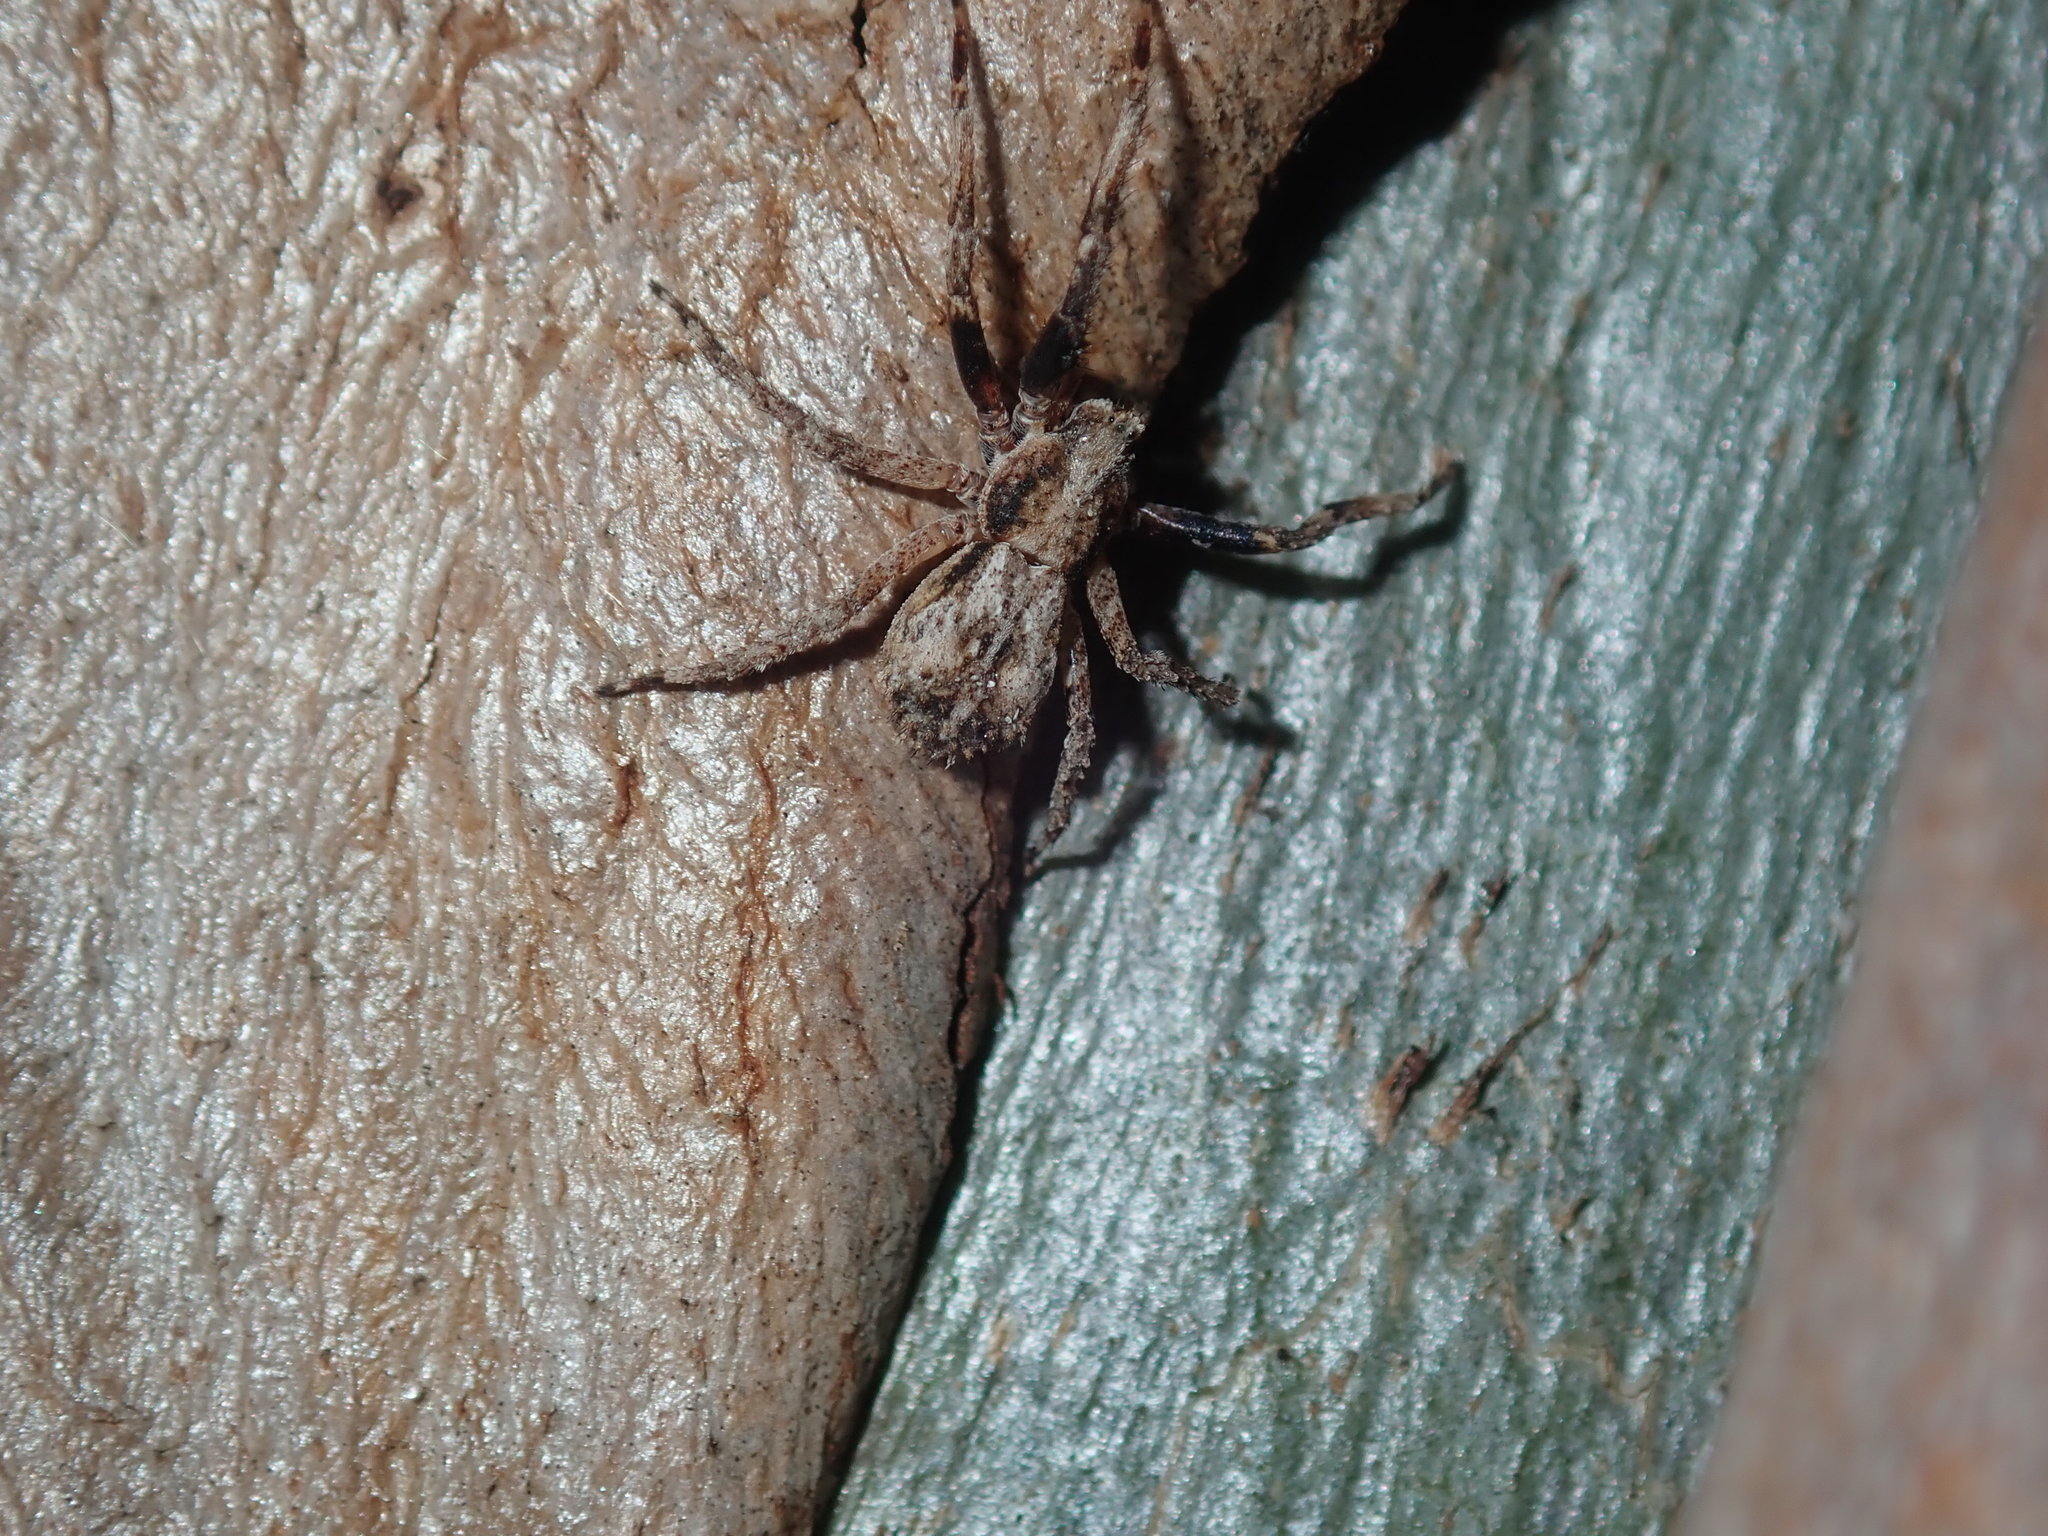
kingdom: Animalia
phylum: Arthropoda
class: Arachnida
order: Araneae
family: Thomisidae
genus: Stephanopis
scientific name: Stephanopis altifrons
